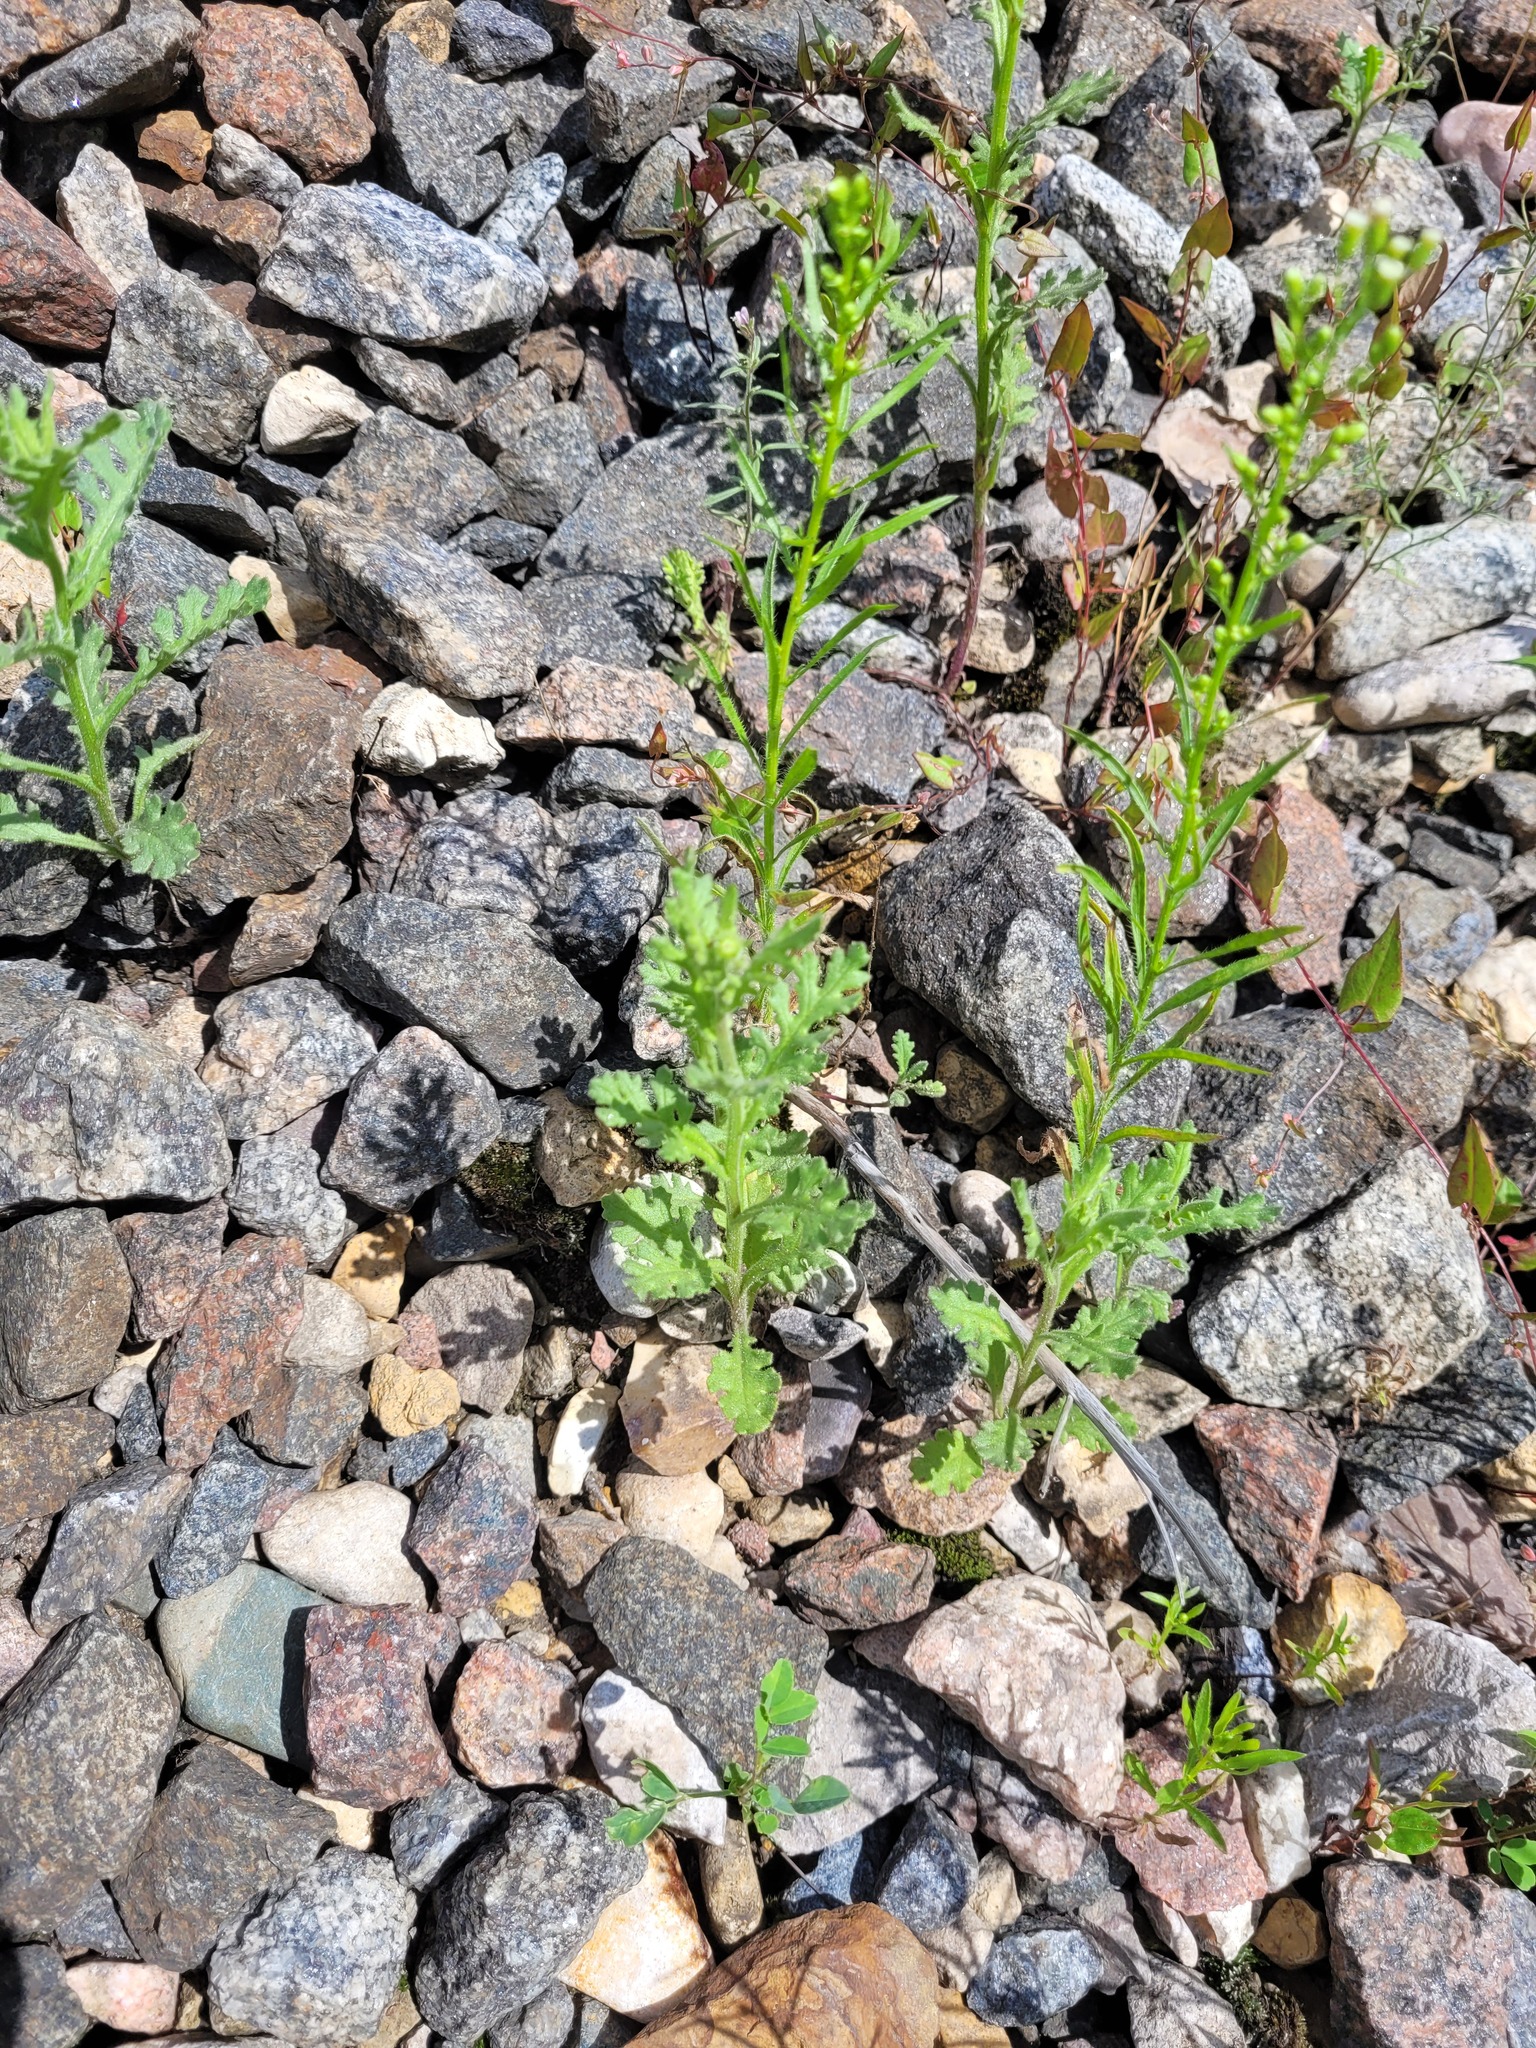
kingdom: Plantae
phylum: Tracheophyta
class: Magnoliopsida
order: Asterales
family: Asteraceae
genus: Senecio
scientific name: Senecio viscosus
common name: Sticky groundsel
